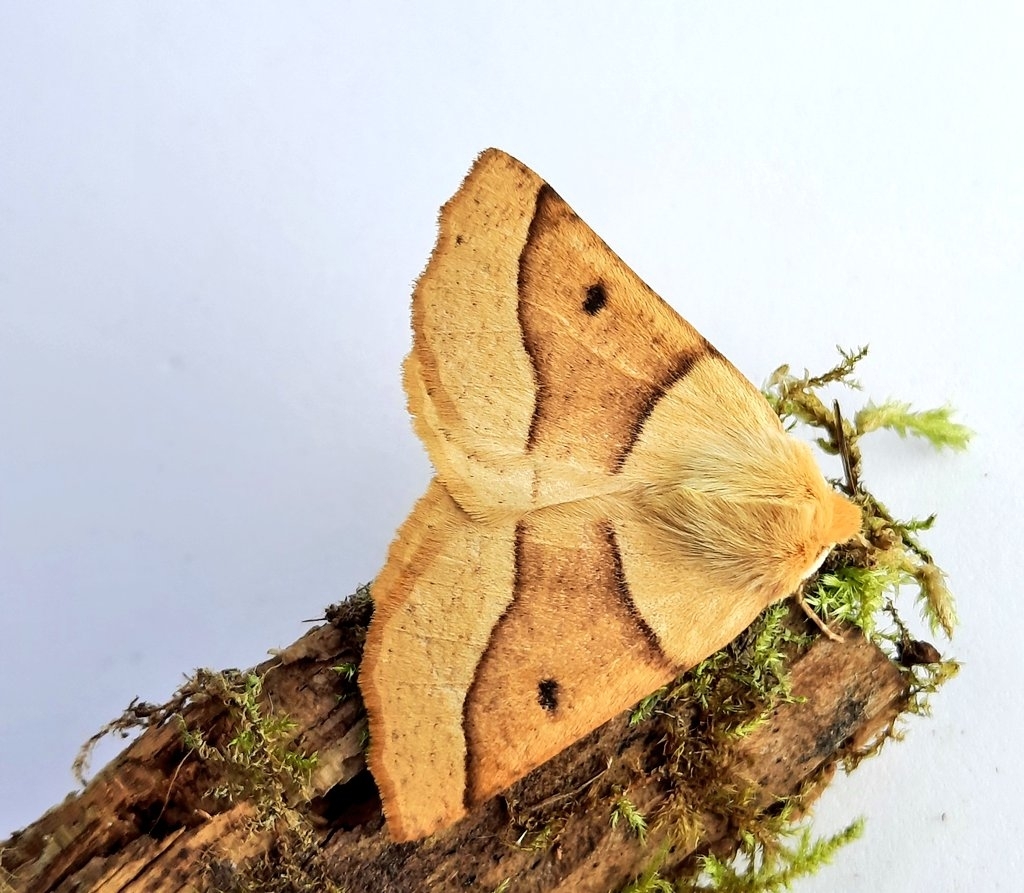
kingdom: Animalia
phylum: Arthropoda
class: Insecta
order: Lepidoptera
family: Geometridae
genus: Crocallis
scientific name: Crocallis elinguaria
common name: Scalloped oak
